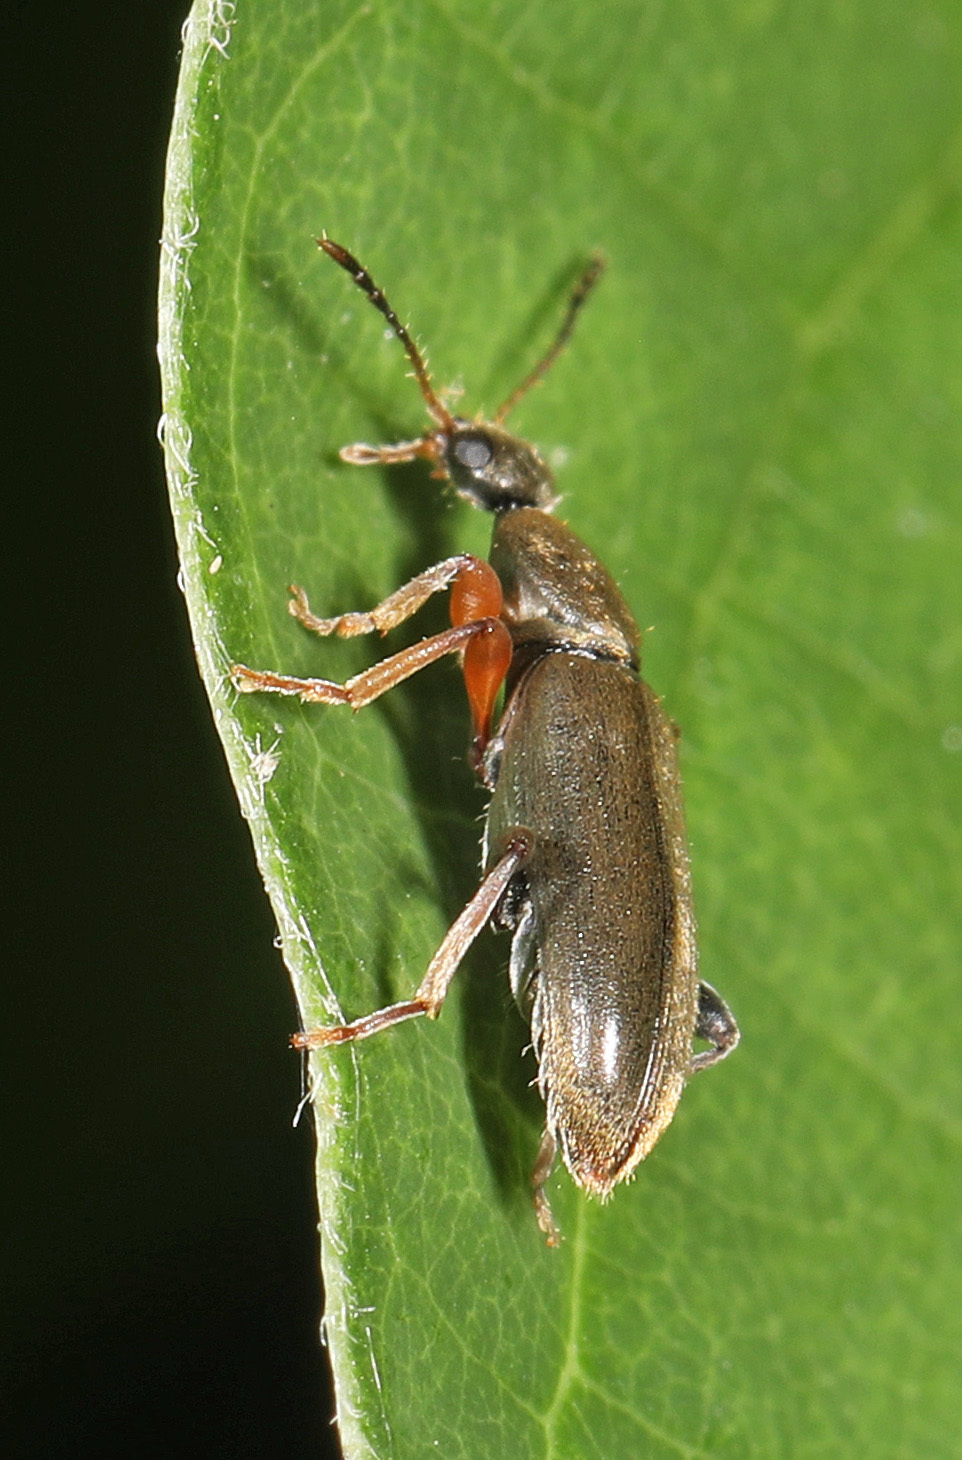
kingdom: Animalia
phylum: Arthropoda
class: Insecta
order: Coleoptera
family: Anthicidae
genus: Macratria
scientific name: Macratria murina
